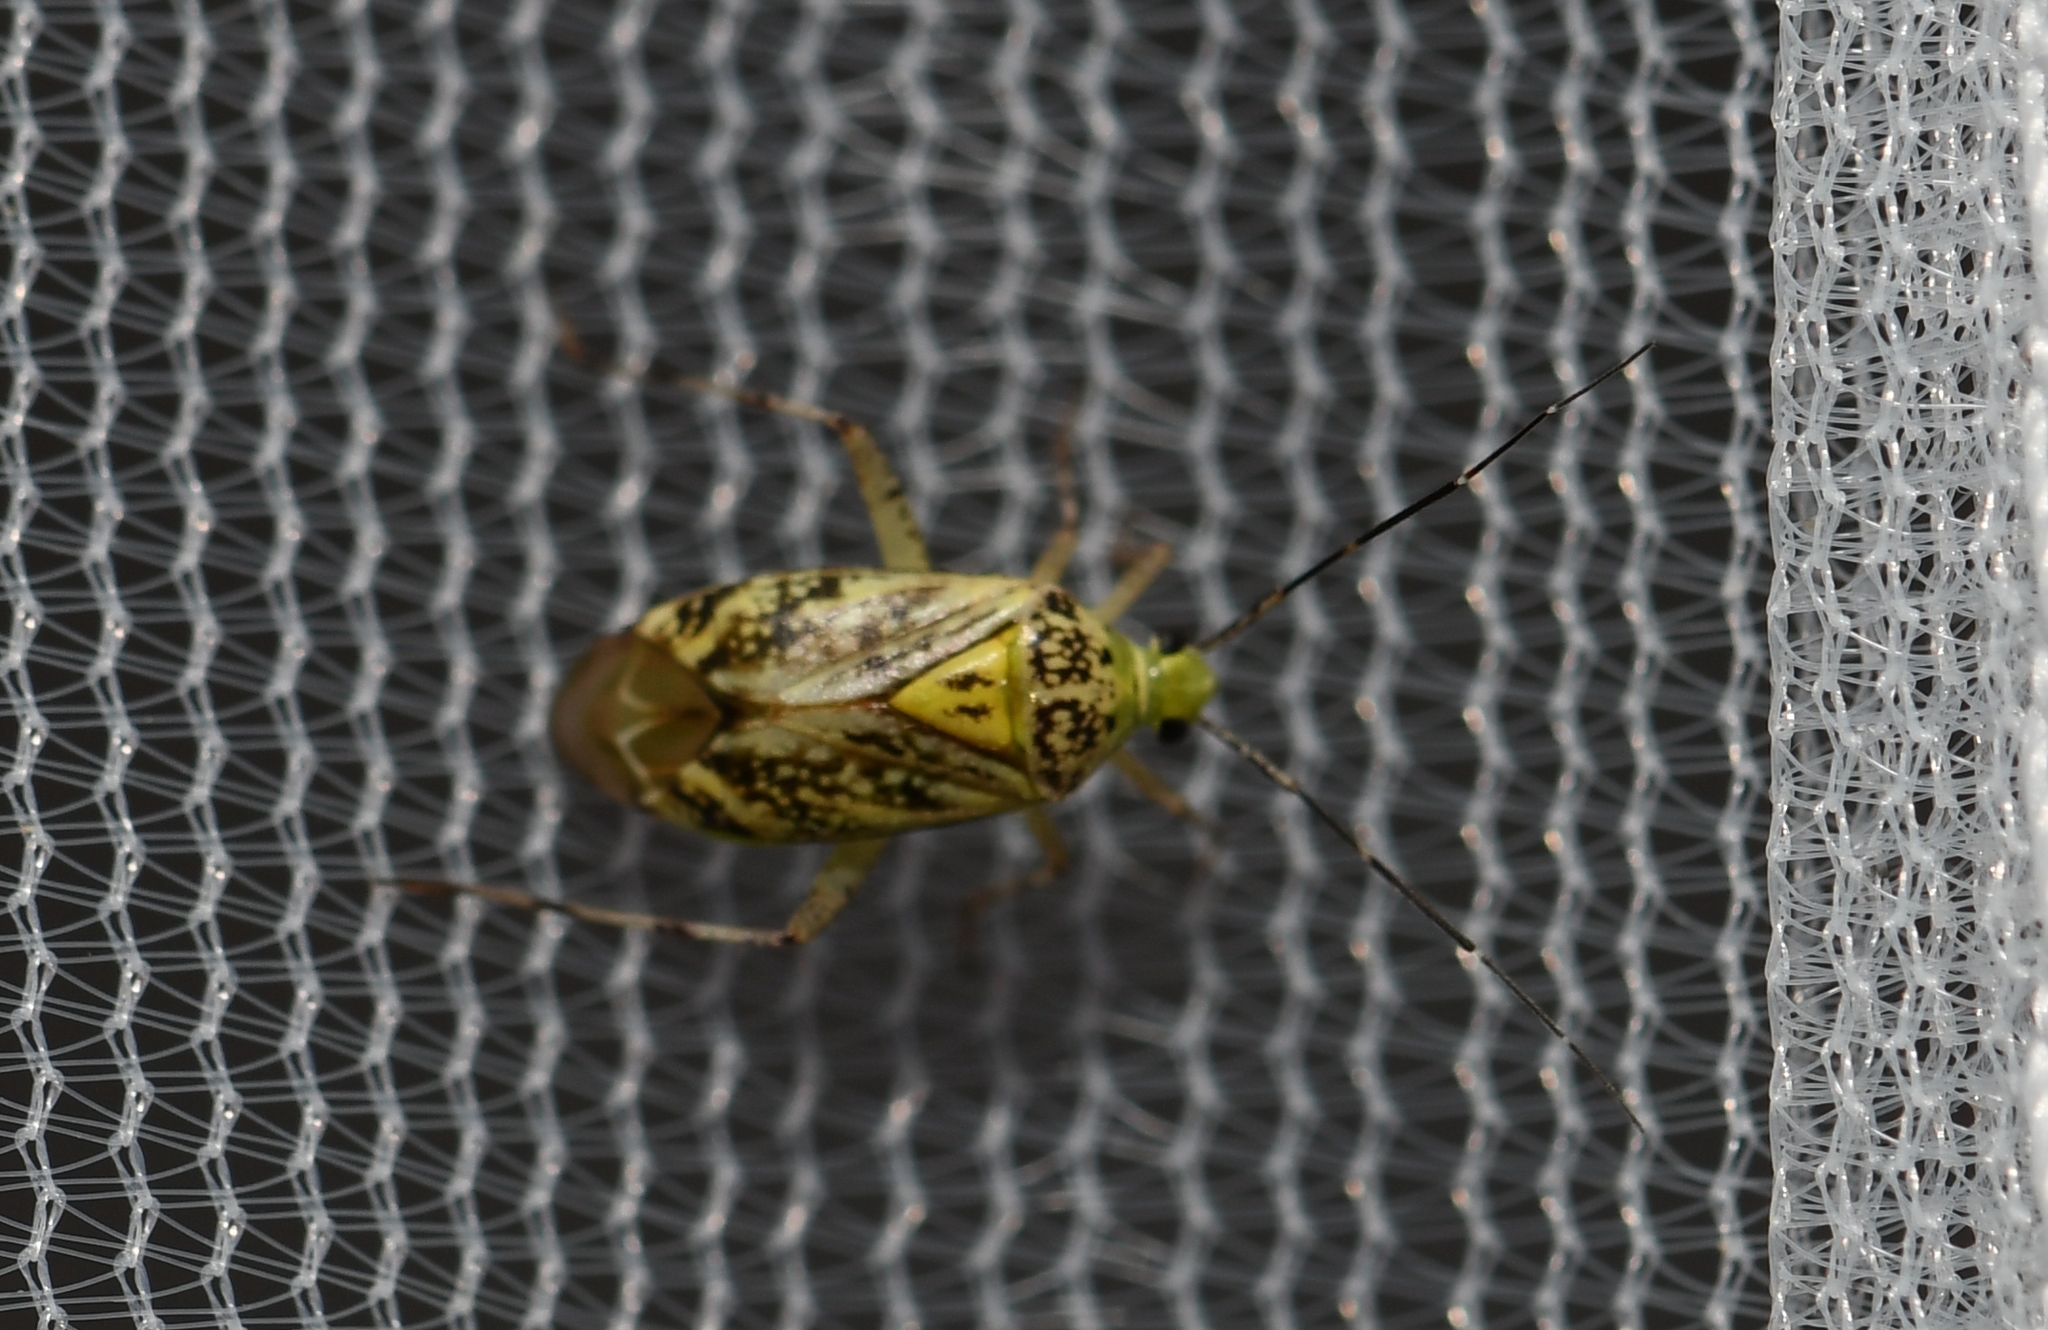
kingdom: Animalia
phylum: Arthropoda
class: Insecta
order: Hemiptera
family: Miridae
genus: Taedia
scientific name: Taedia marmorata
